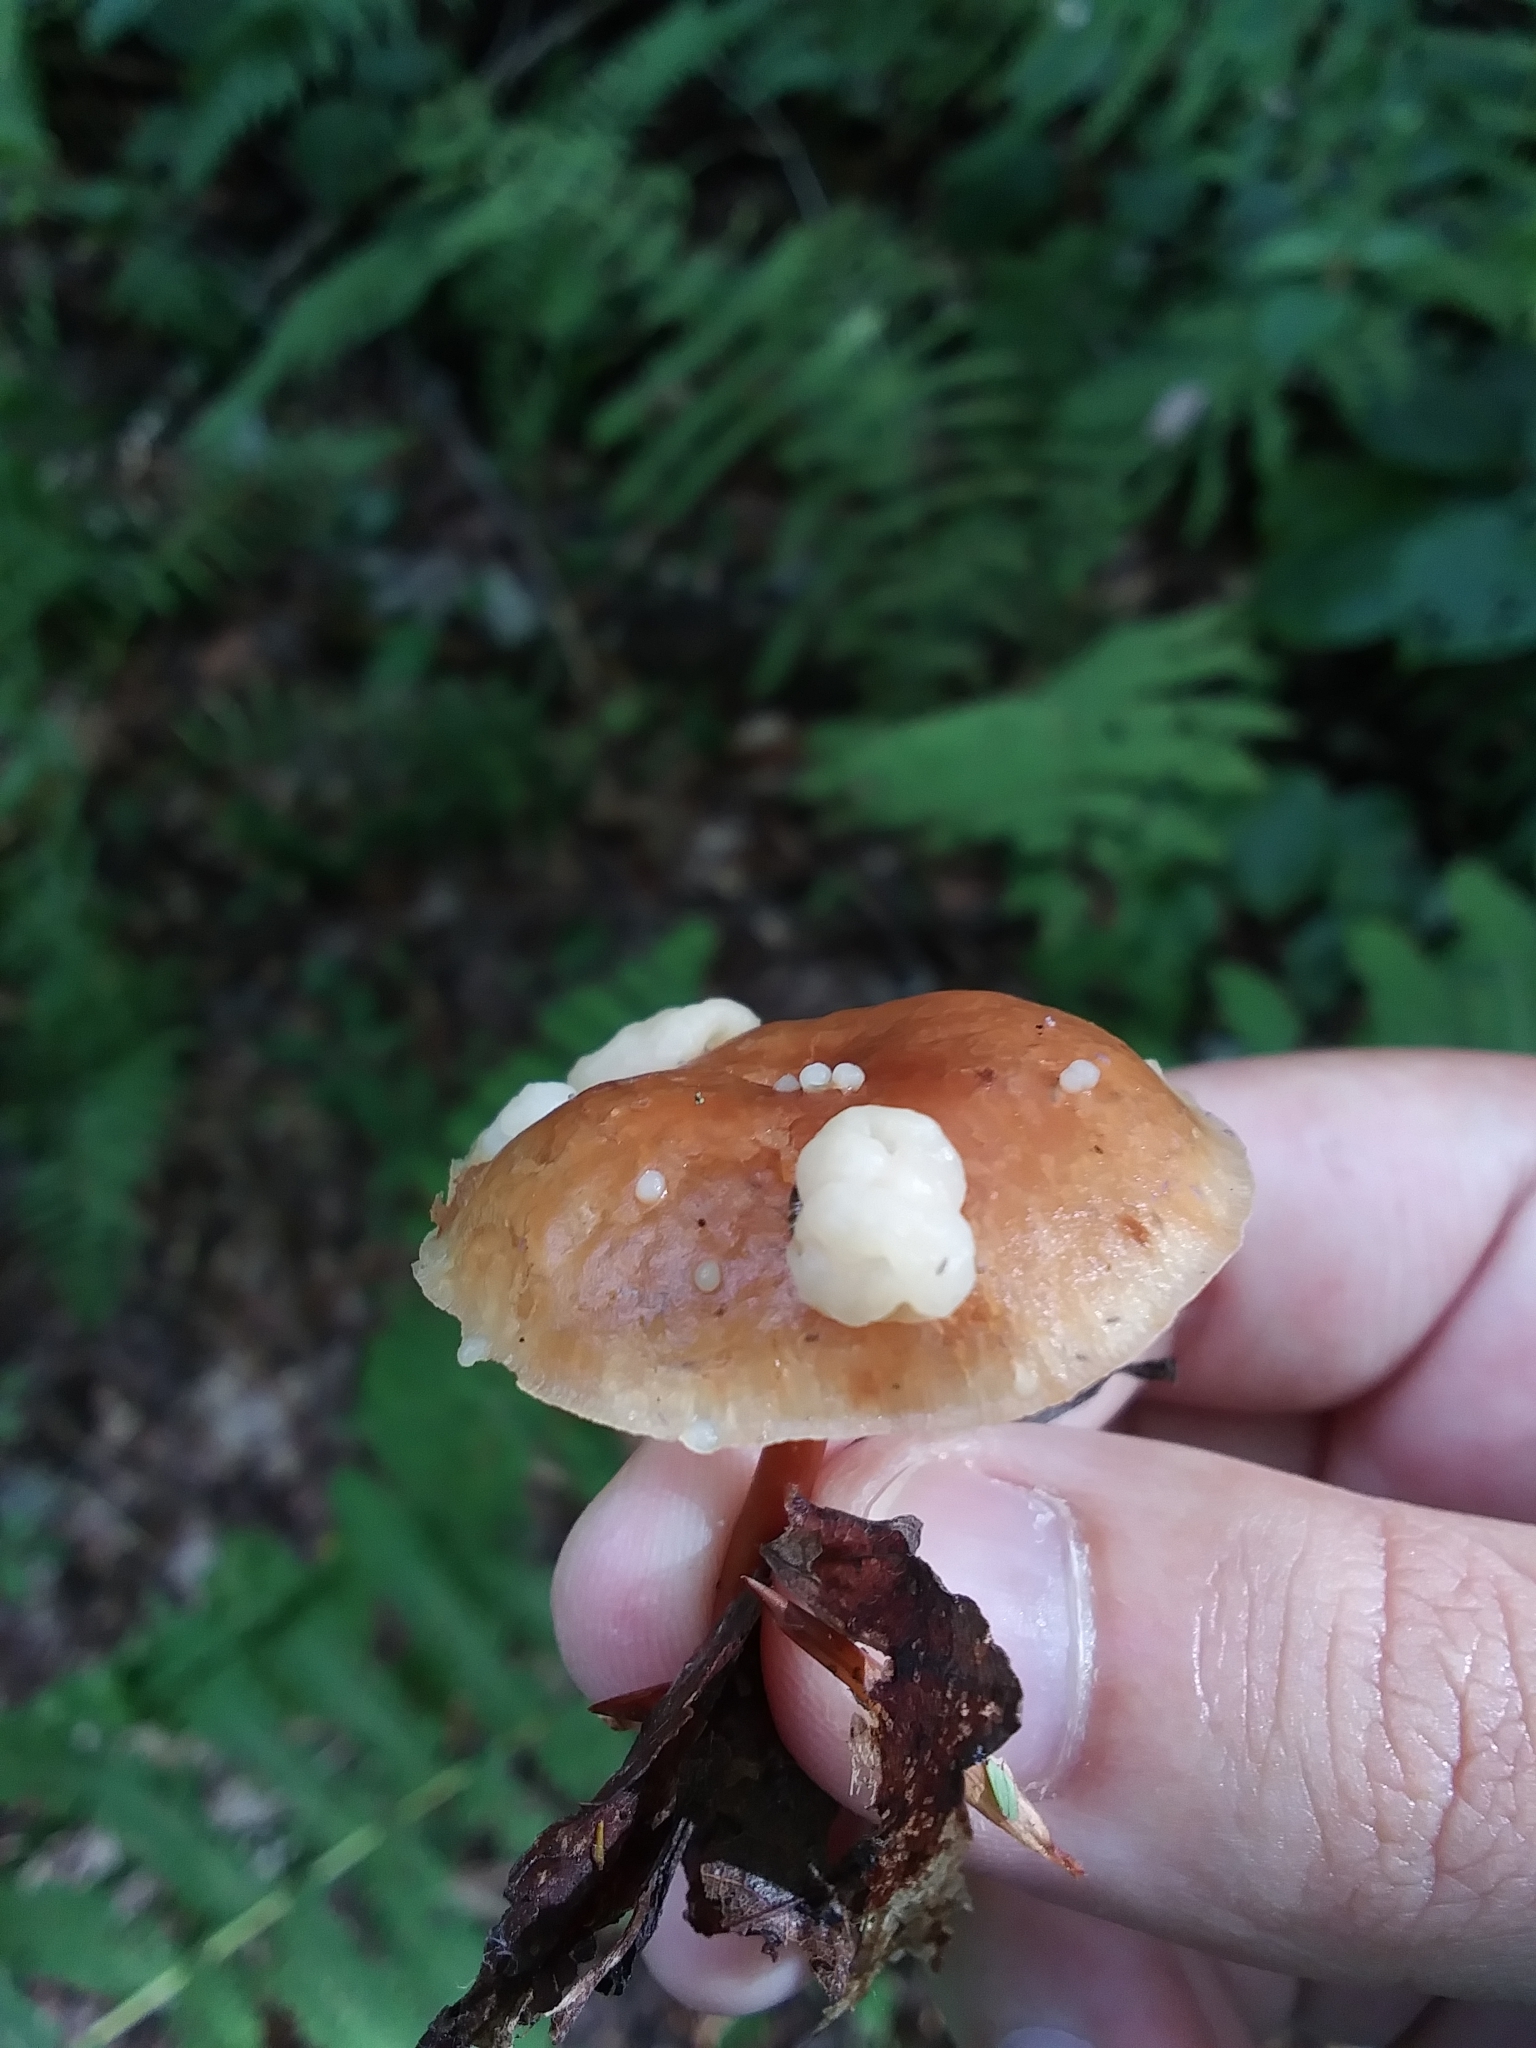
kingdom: Fungi
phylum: Basidiomycota
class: Tremellomycetes
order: Filobasidiales
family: Filobasidiaceae
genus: Syzygospora
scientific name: Syzygospora mycetophila
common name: Collybia clouds
